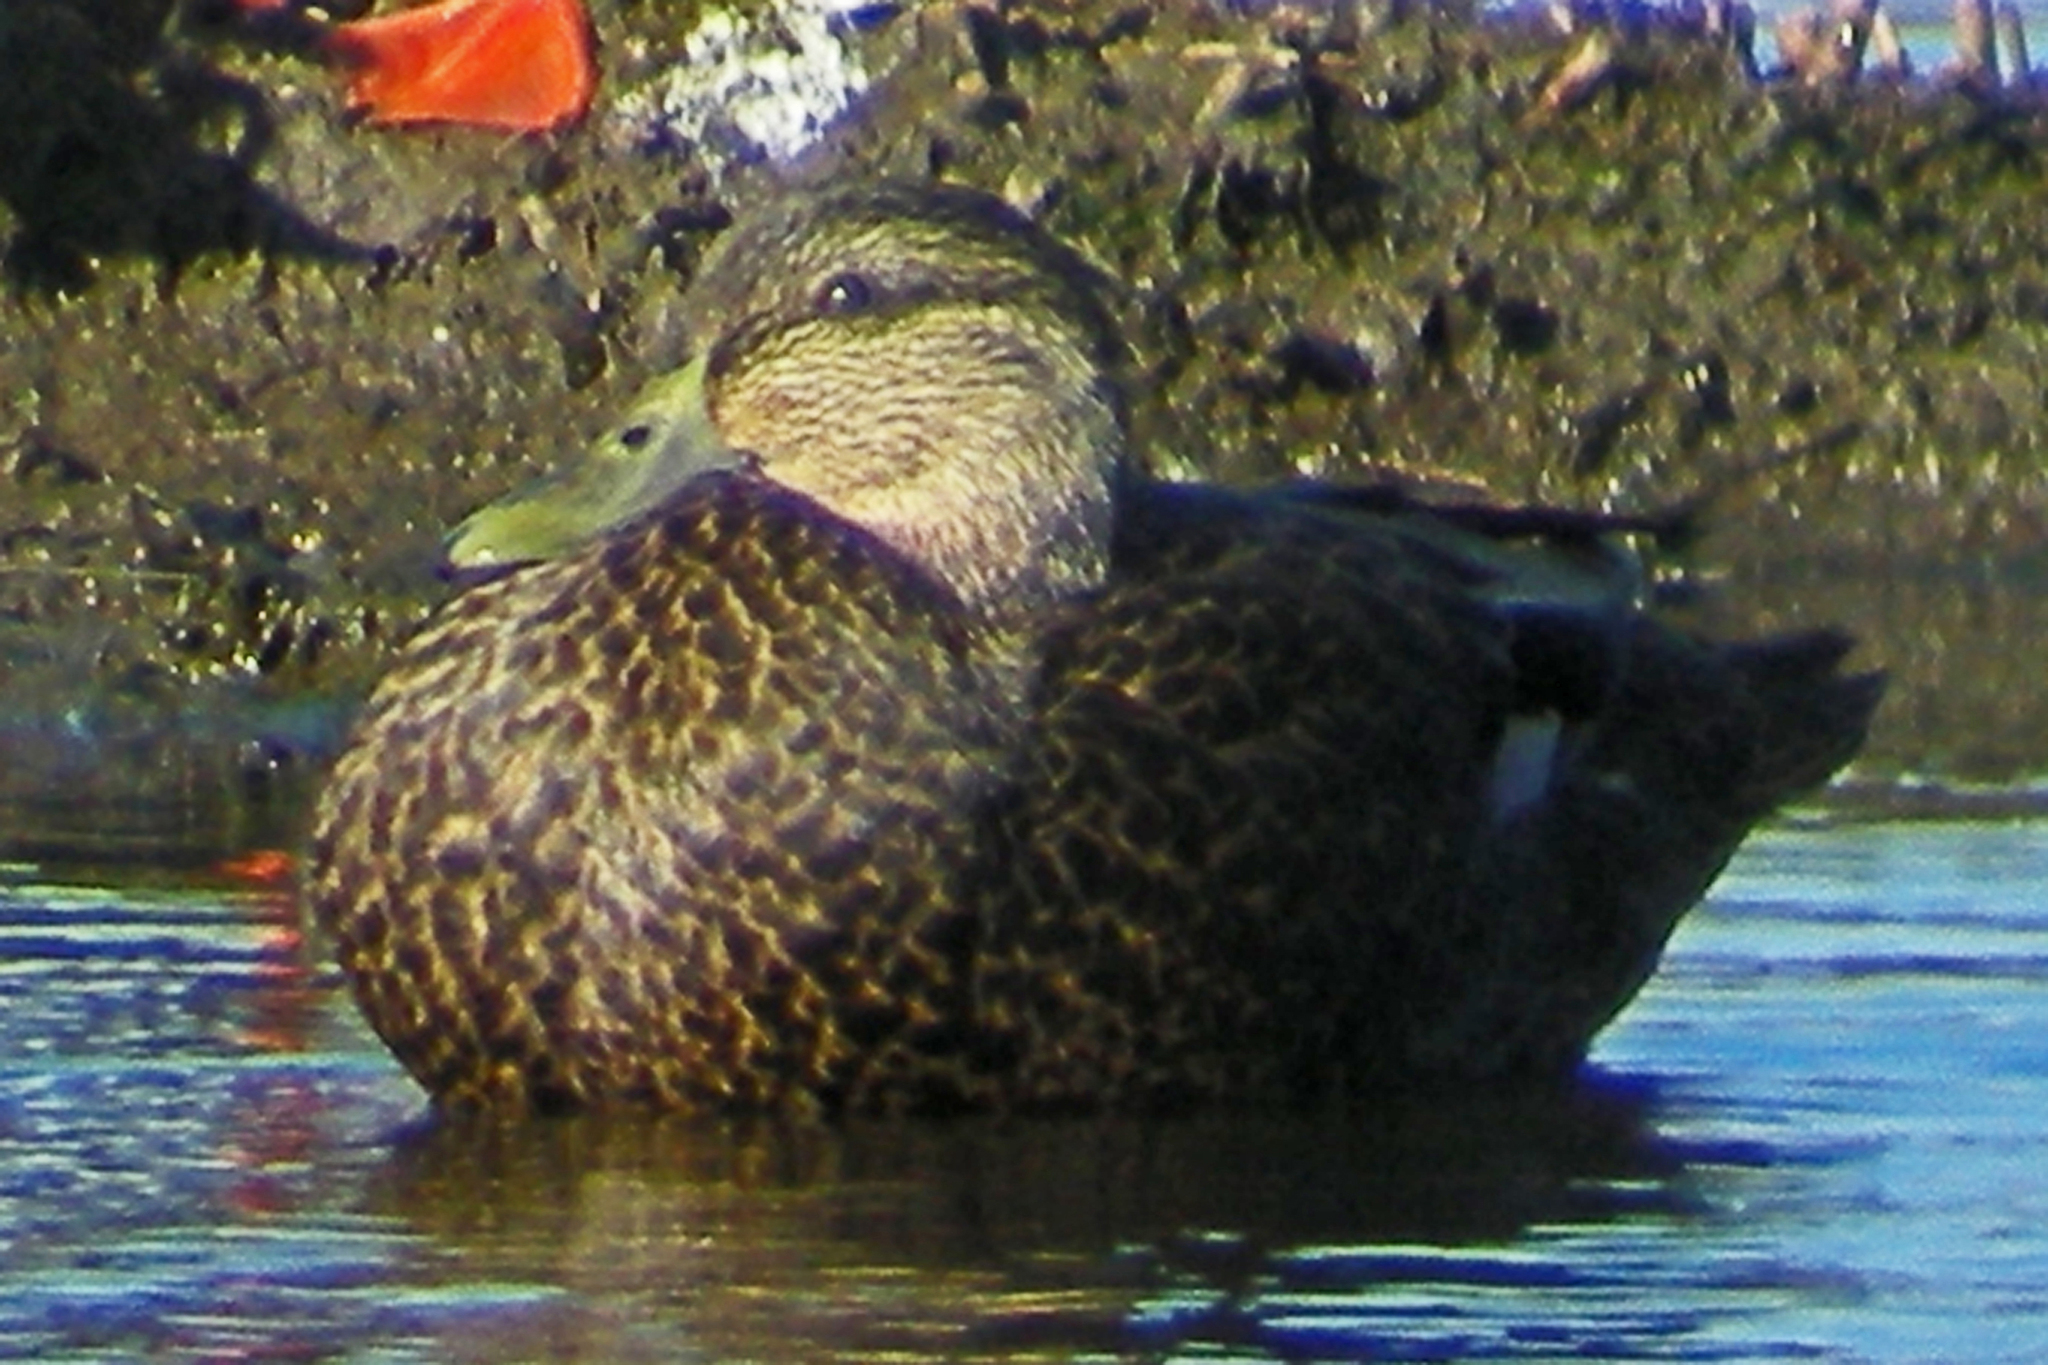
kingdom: Animalia
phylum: Chordata
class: Aves
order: Anseriformes
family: Anatidae
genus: Anas
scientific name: Anas rubripes
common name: American black duck
